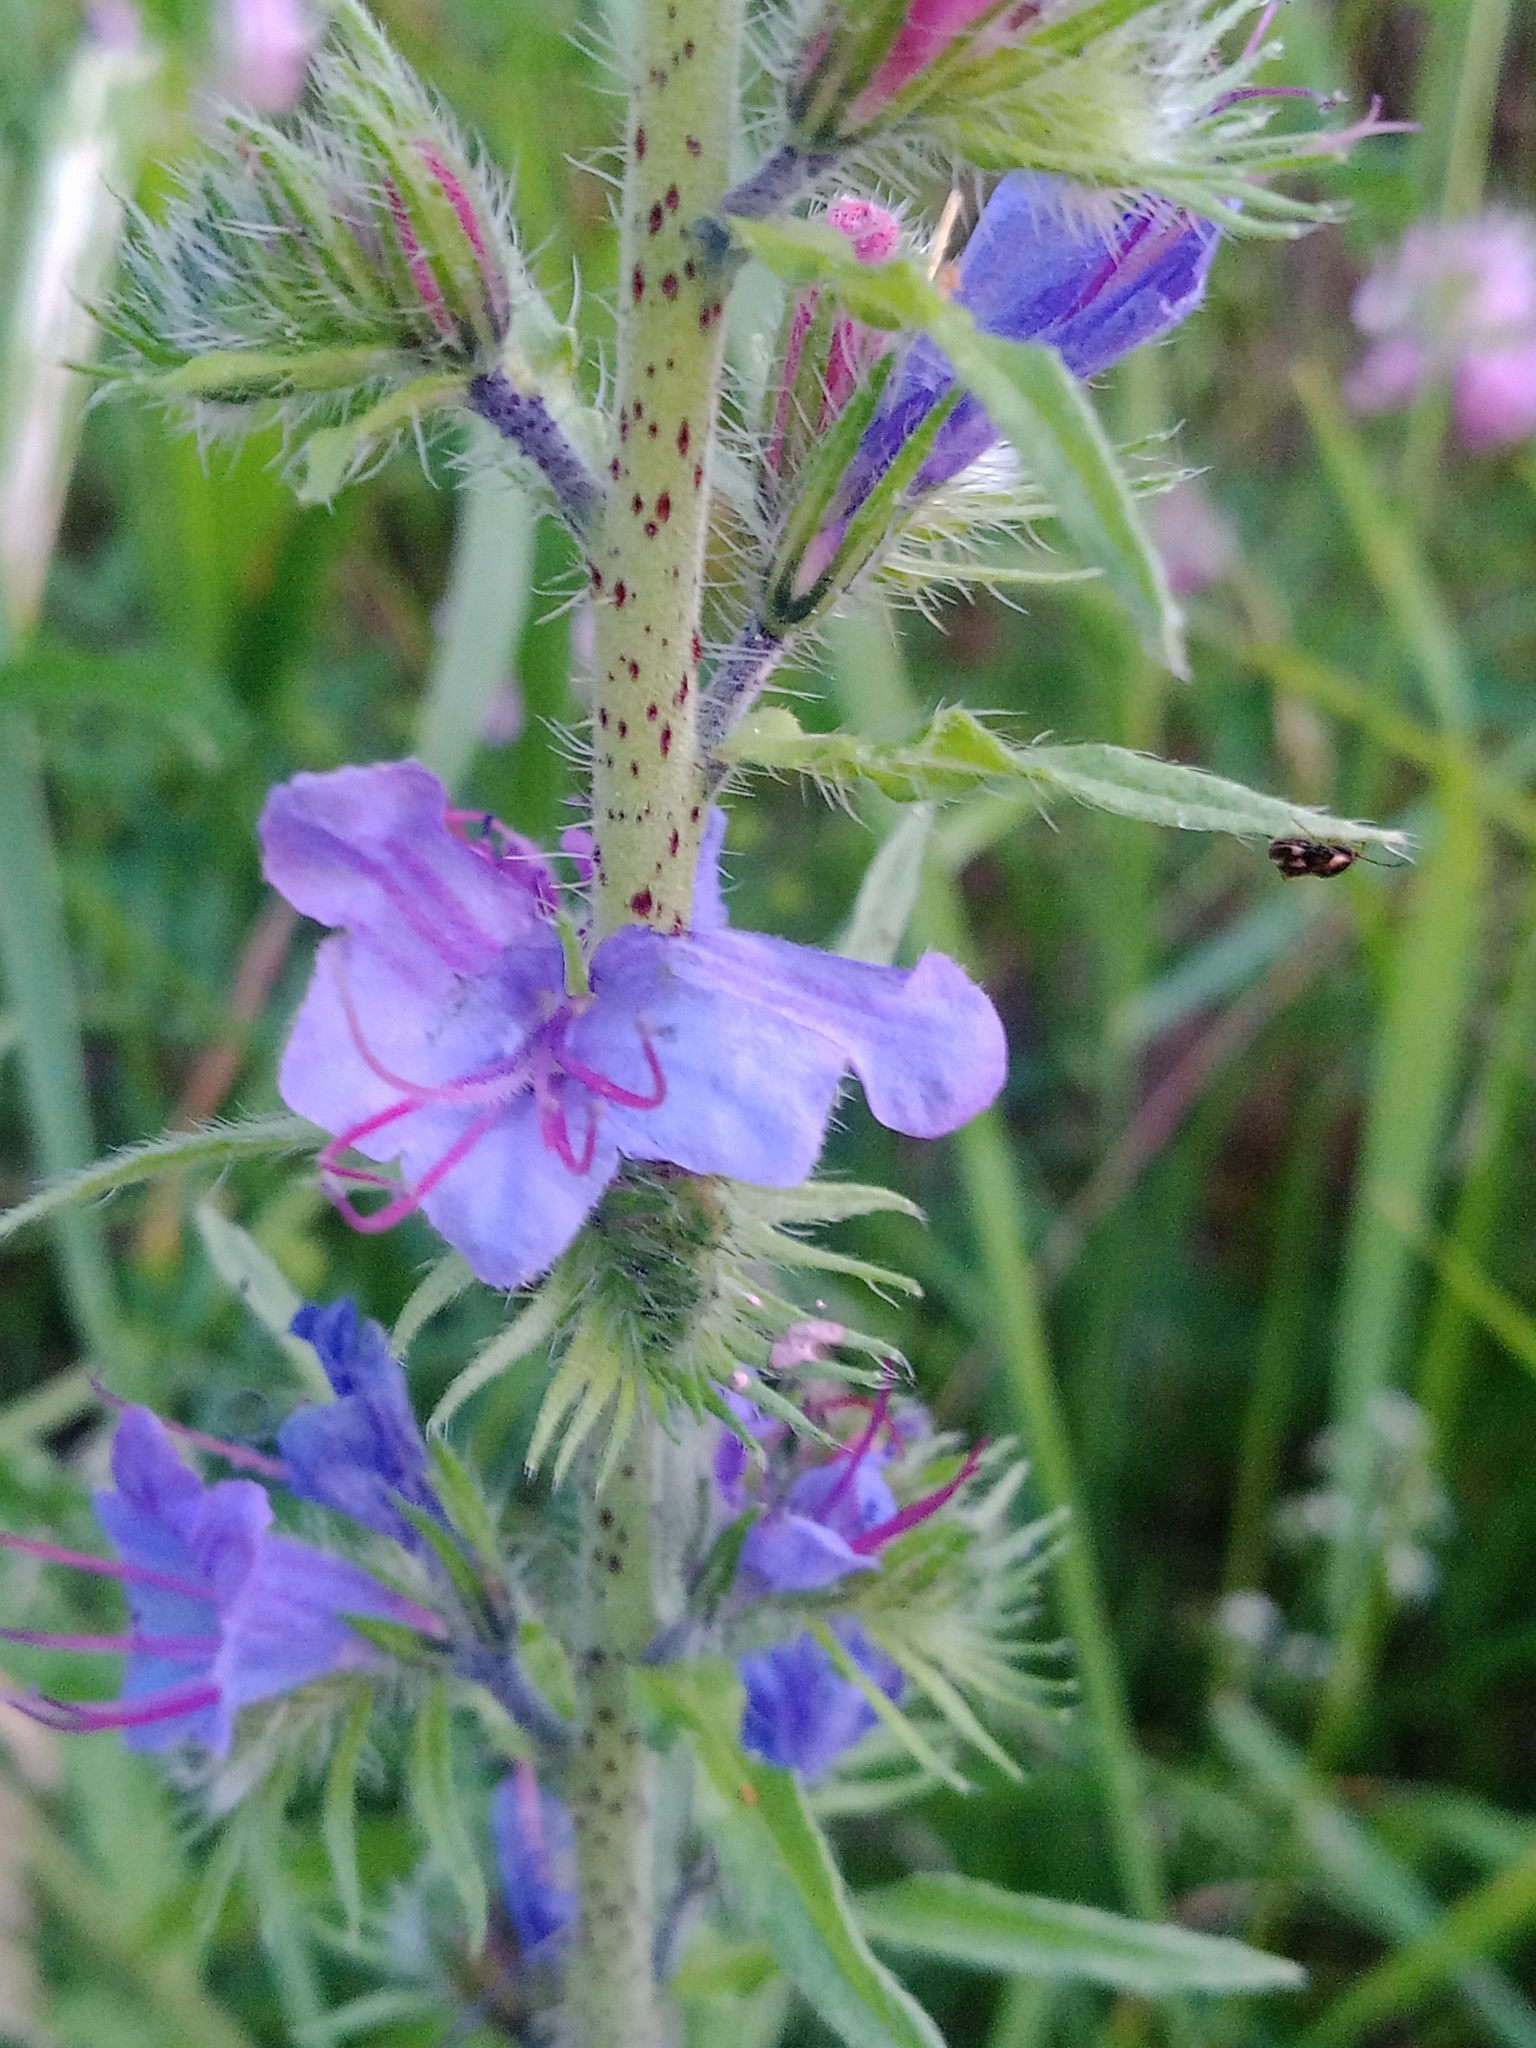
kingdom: Plantae
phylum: Tracheophyta
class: Magnoliopsida
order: Boraginales
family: Boraginaceae
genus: Echium
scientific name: Echium vulgare
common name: Common viper's bugloss
